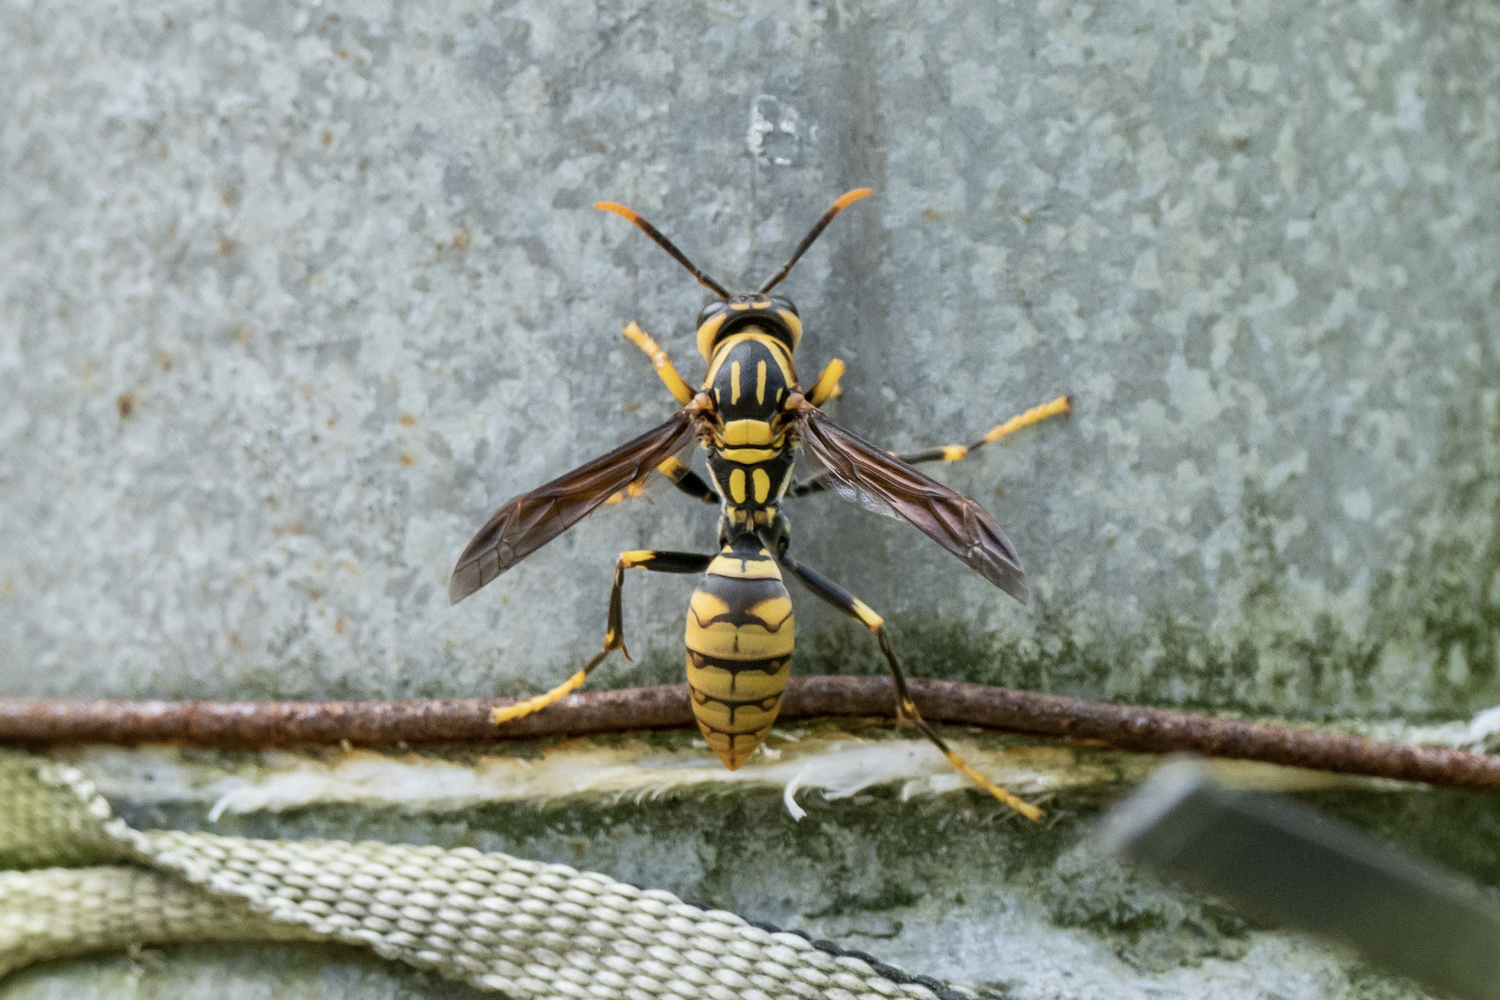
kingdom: Animalia
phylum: Arthropoda
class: Insecta
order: Hymenoptera
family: Eumenidae
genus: Polistes
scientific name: Polistes rothneyi
